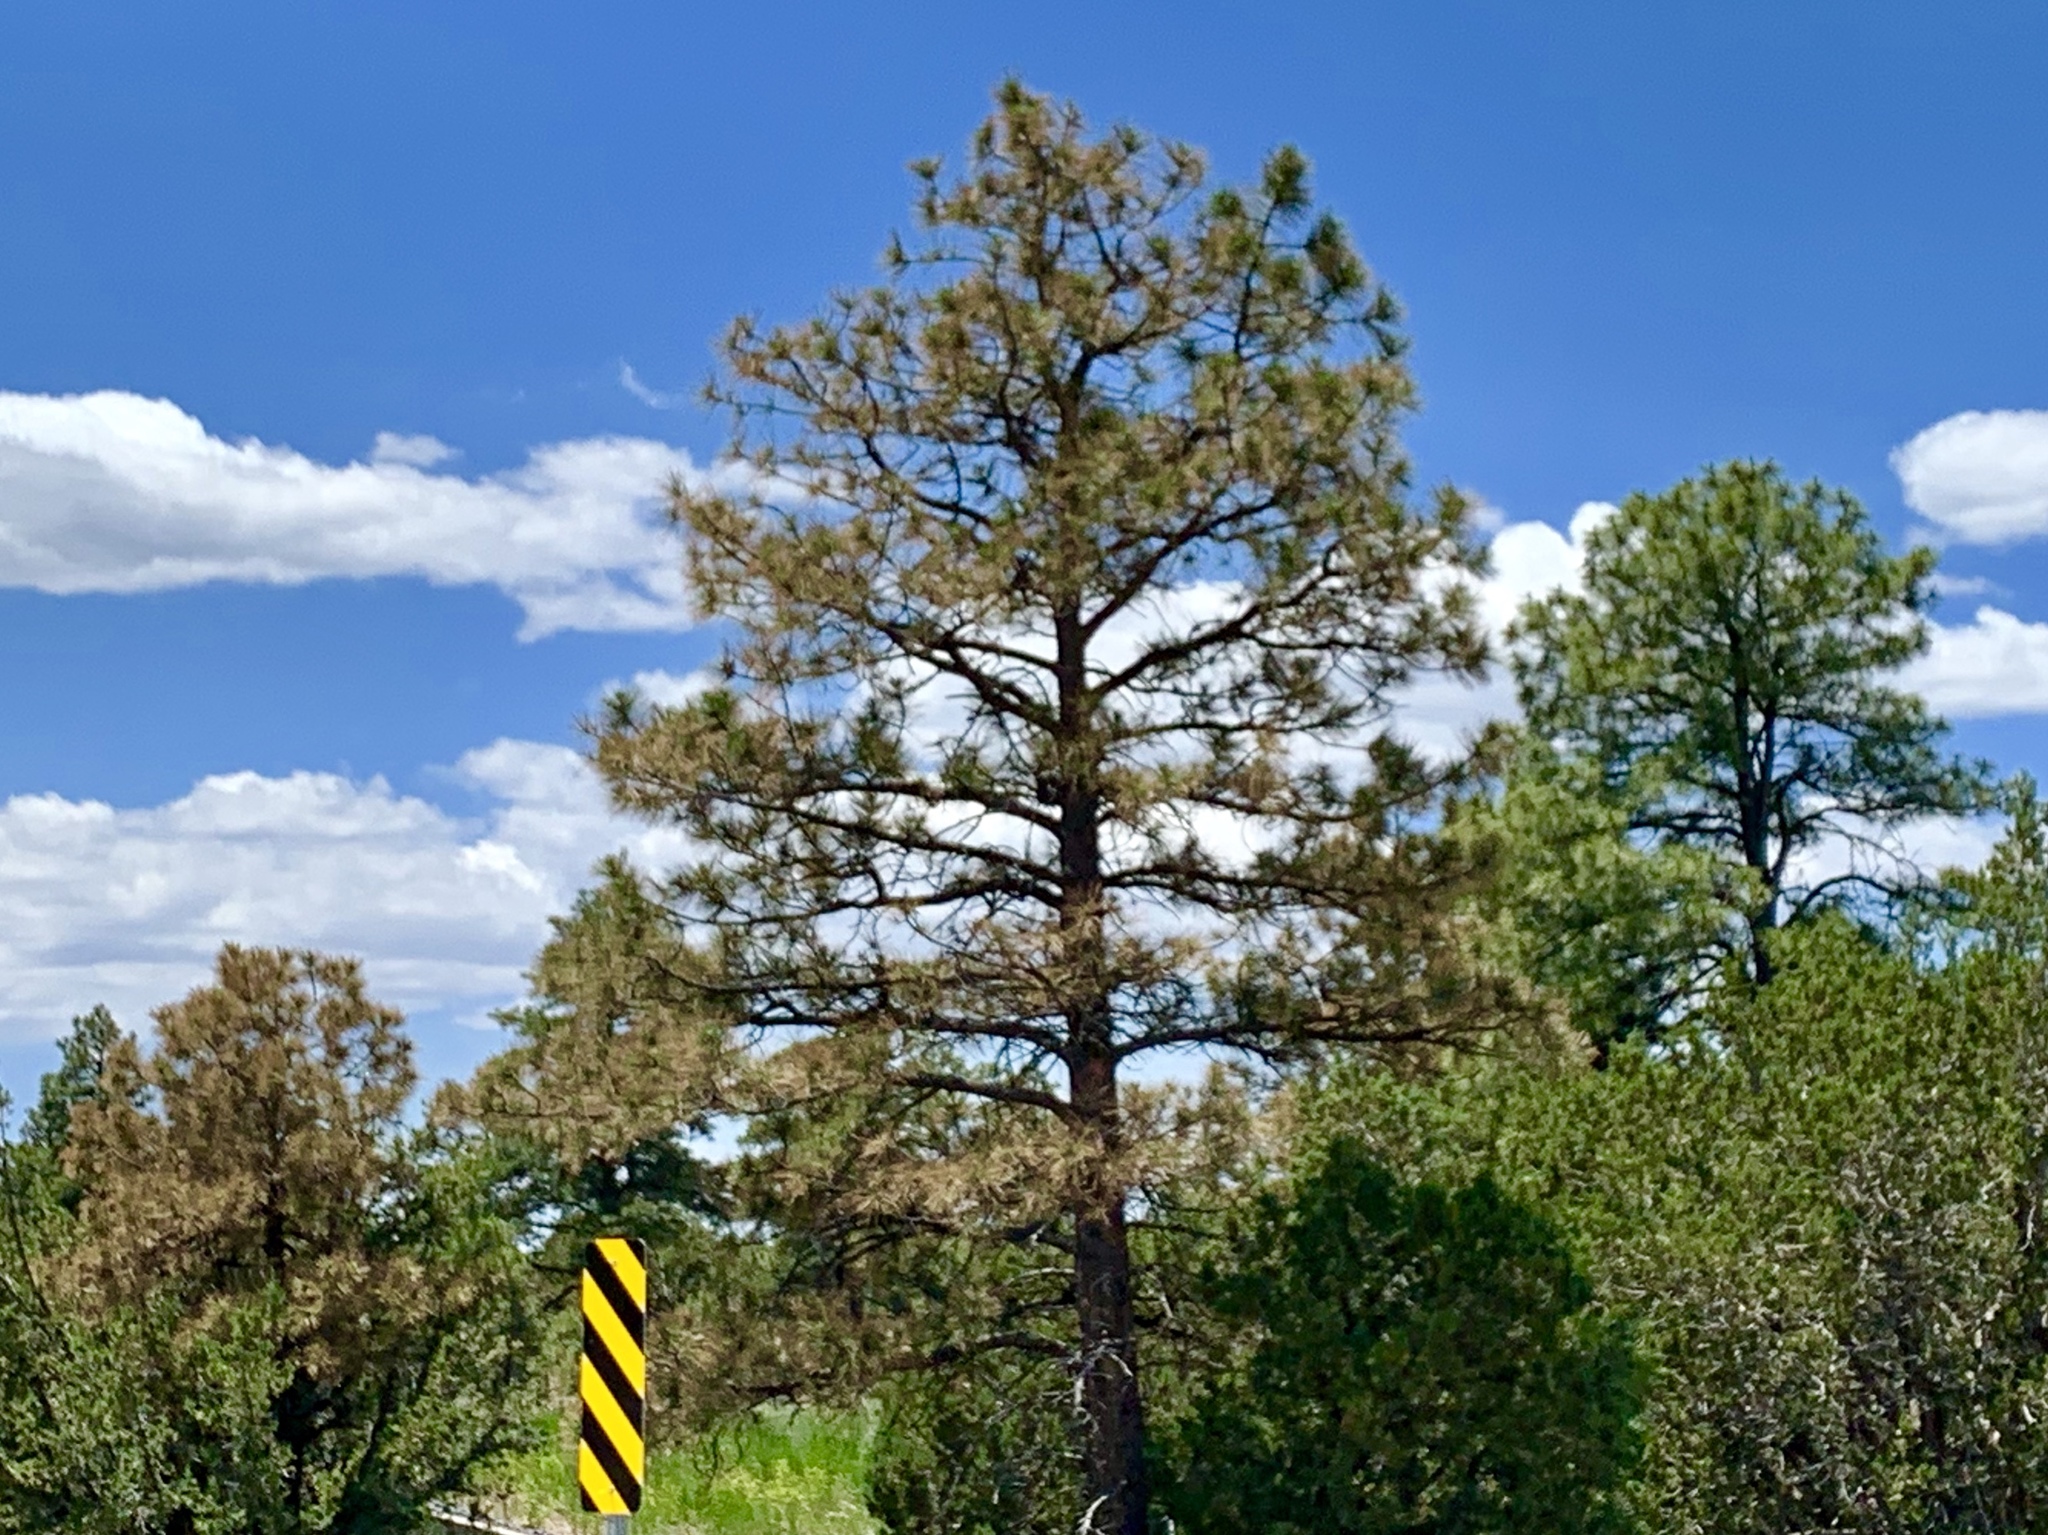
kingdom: Plantae
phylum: Tracheophyta
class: Pinopsida
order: Pinales
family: Pinaceae
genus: Pinus
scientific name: Pinus ponderosa
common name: Western yellow-pine
